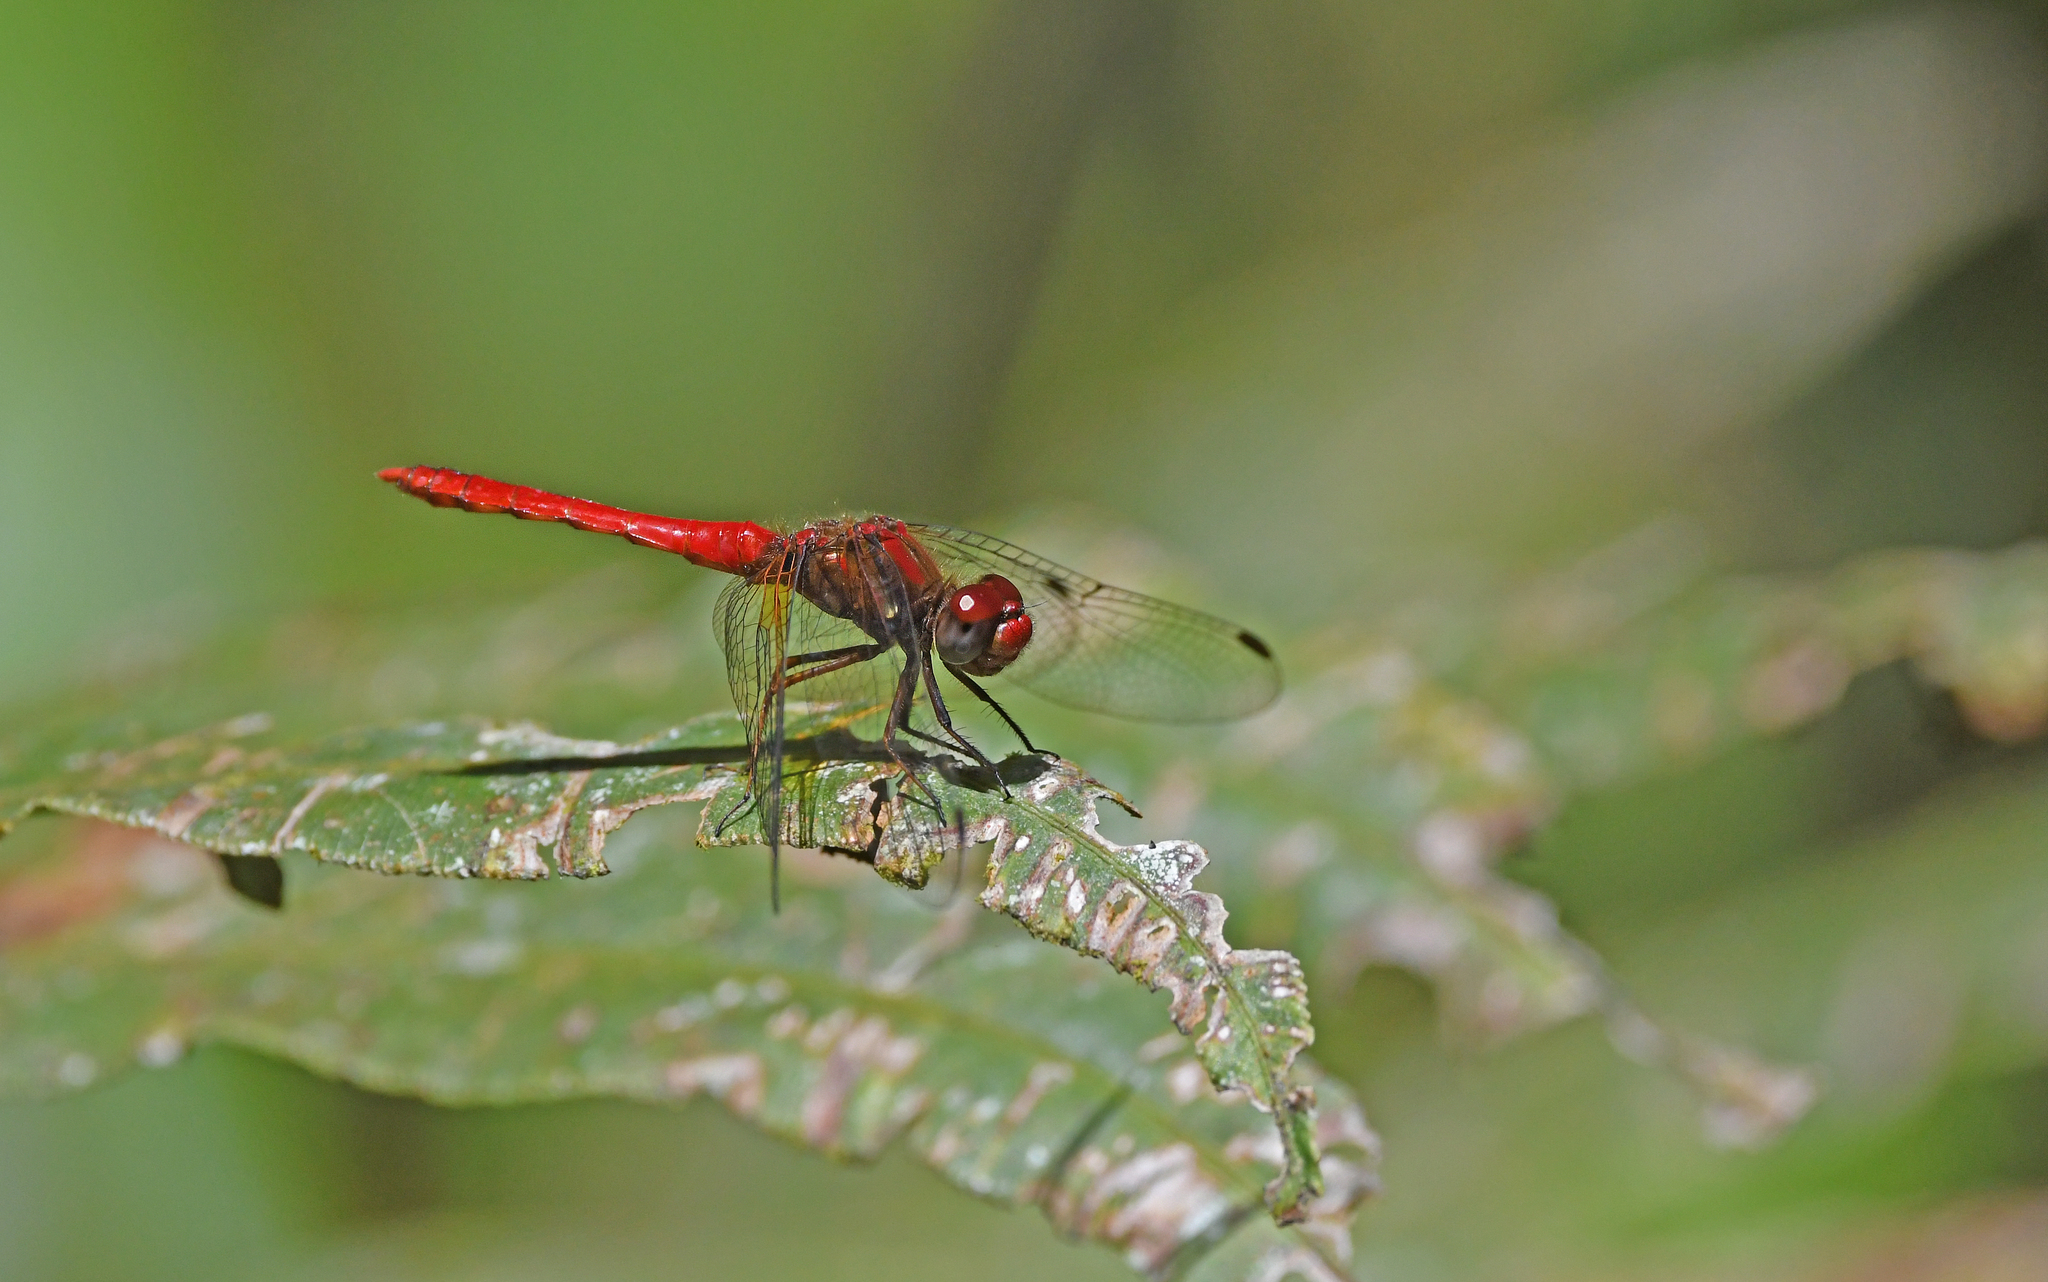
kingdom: Animalia
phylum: Arthropoda
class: Insecta
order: Odonata
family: Libellulidae
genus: Sympetrum
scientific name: Sympetrum gilvum
